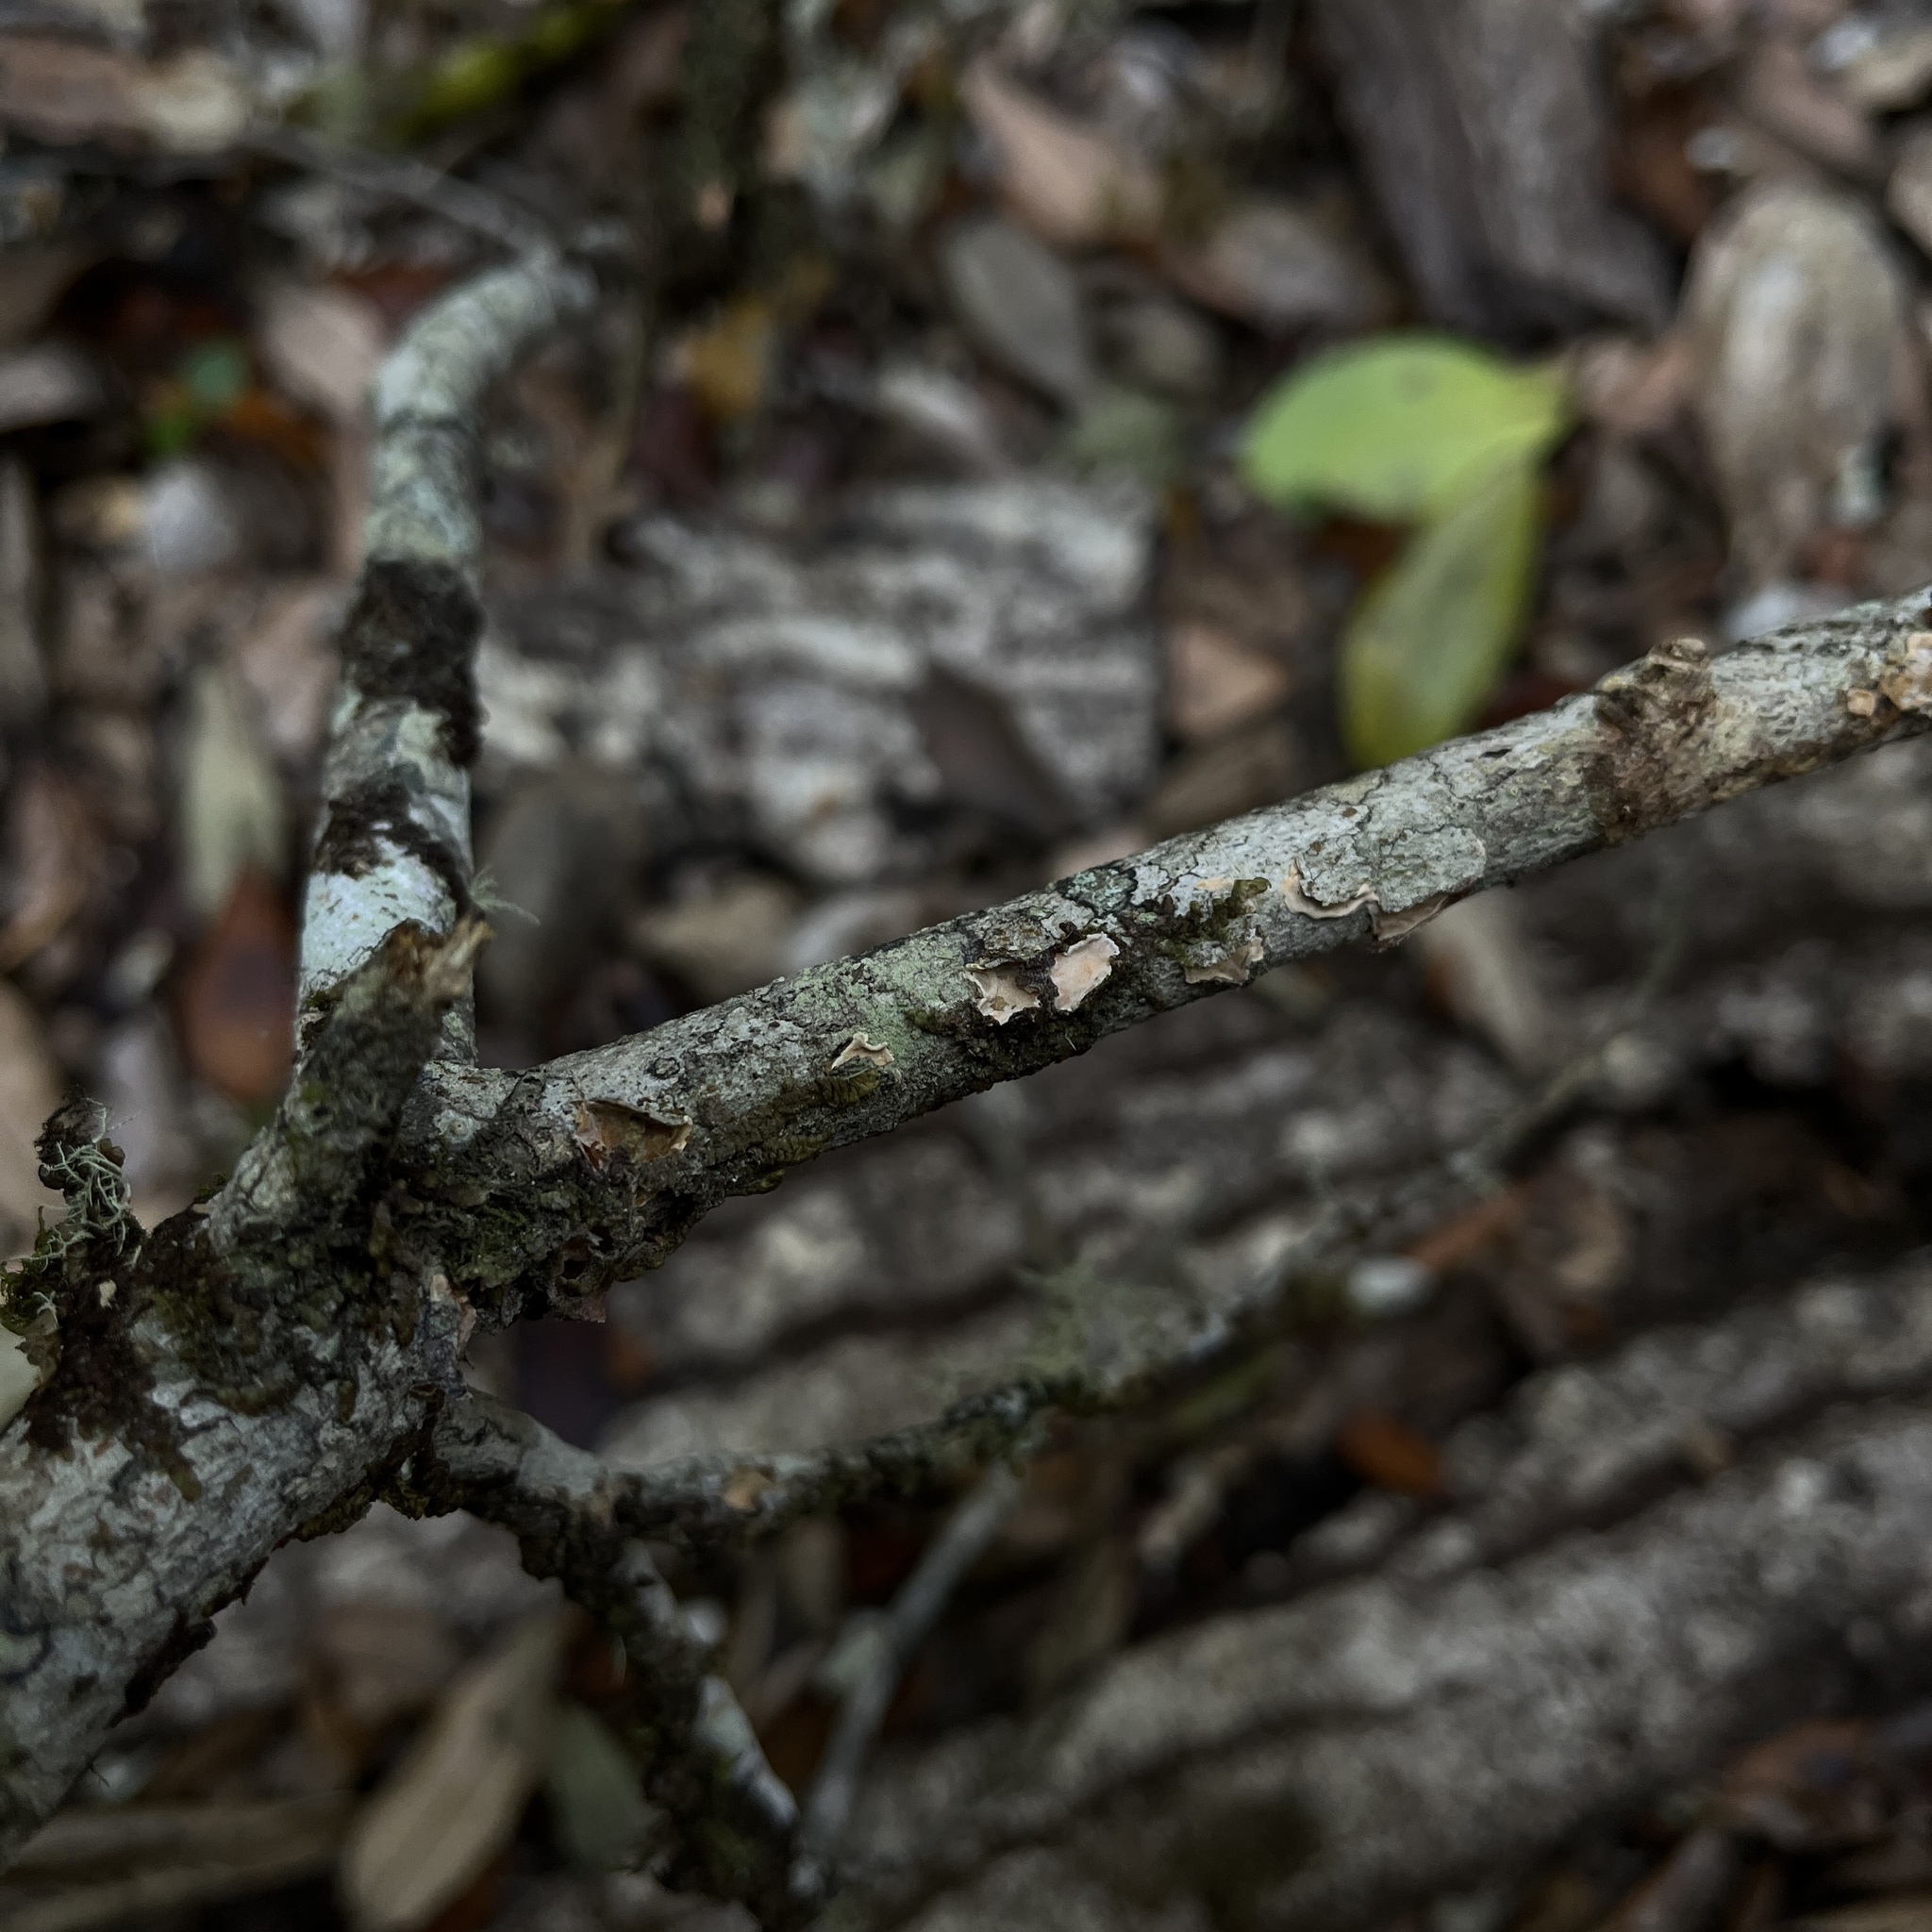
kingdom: Fungi
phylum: Basidiomycota
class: Agaricomycetes
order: Russulales
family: Stereaceae
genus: Gloeosoma
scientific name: Gloeosoma decorticans
